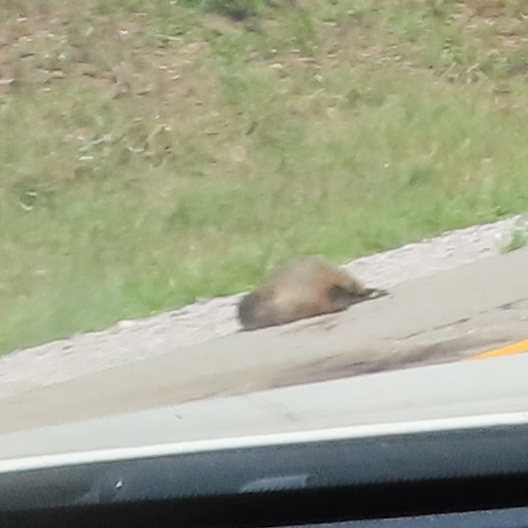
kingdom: Animalia
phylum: Chordata
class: Mammalia
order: Rodentia
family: Sciuridae
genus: Marmota
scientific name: Marmota monax
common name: Groundhog
